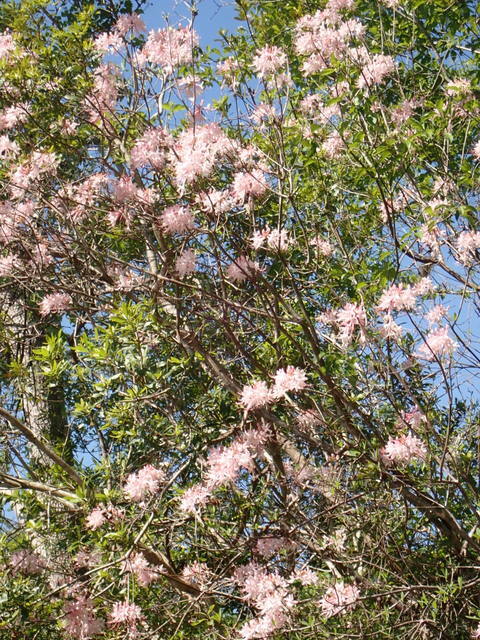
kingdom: Plantae
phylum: Tracheophyta
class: Magnoliopsida
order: Ericales
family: Ericaceae
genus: Rhododendron
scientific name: Rhododendron canescens
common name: Mountain azalea
